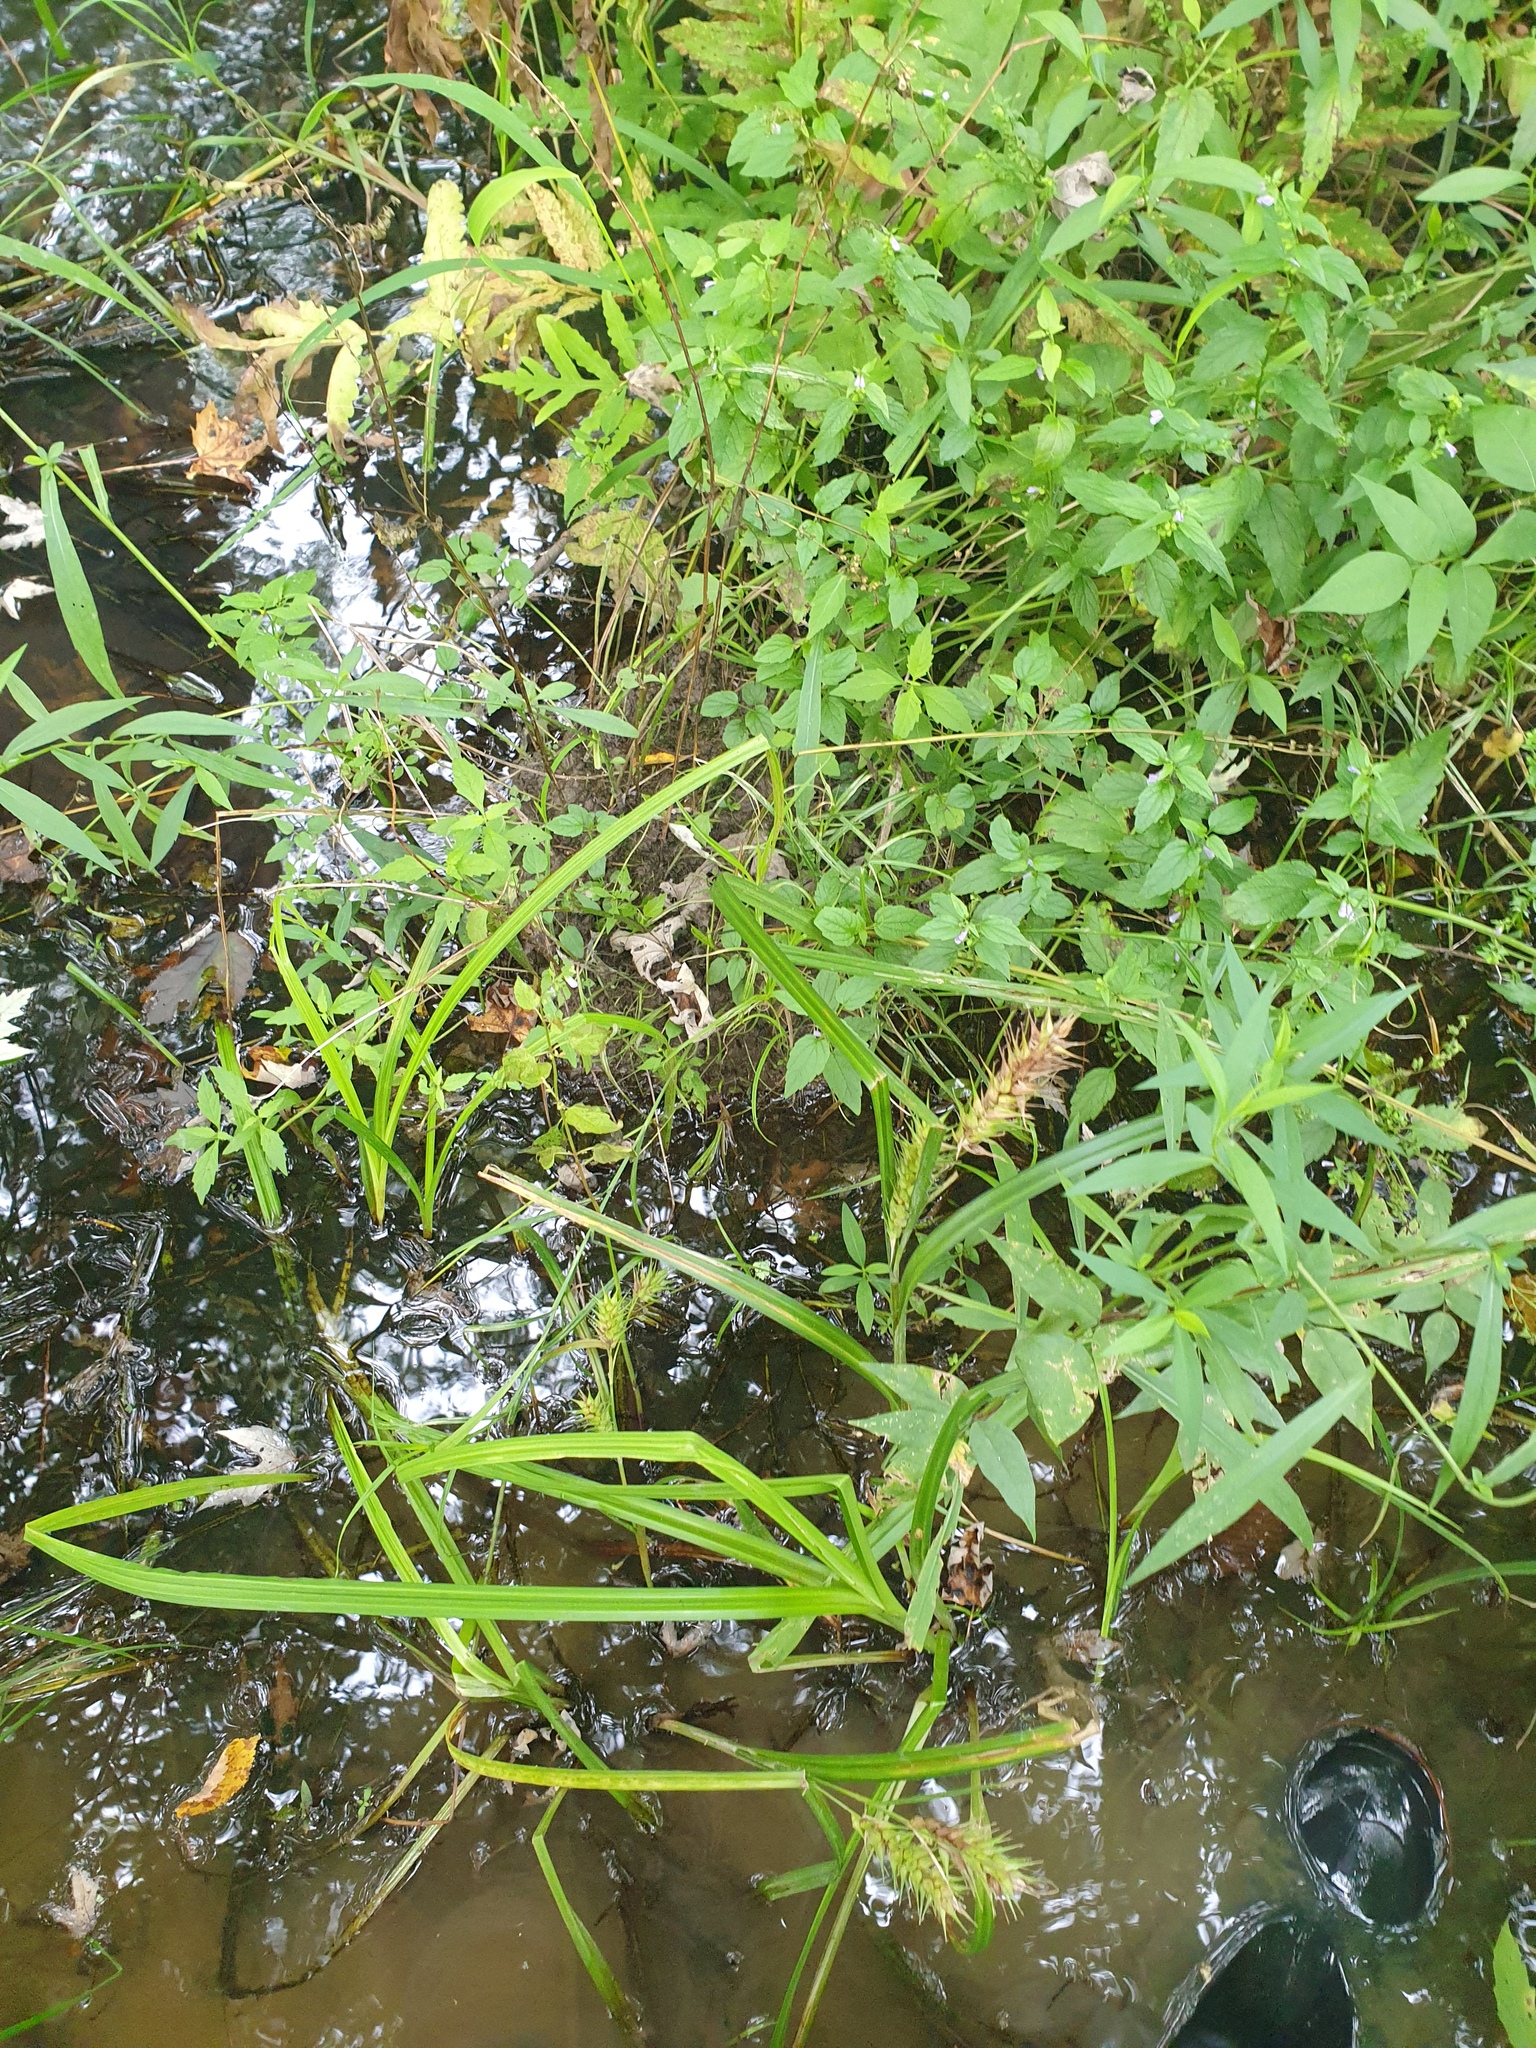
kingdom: Plantae
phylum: Tracheophyta
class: Liliopsida
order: Poales
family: Cyperaceae
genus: Carex
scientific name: Carex lupulina
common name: Hop sedge
